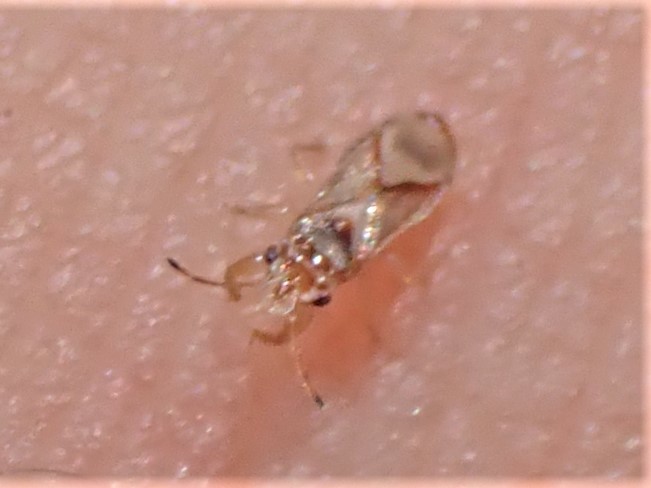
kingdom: Animalia
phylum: Arthropoda
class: Insecta
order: Hemiptera
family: Thaumastocoridae
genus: Thaumastocoris
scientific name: Thaumastocoris peregrinus
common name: Bronze bug
